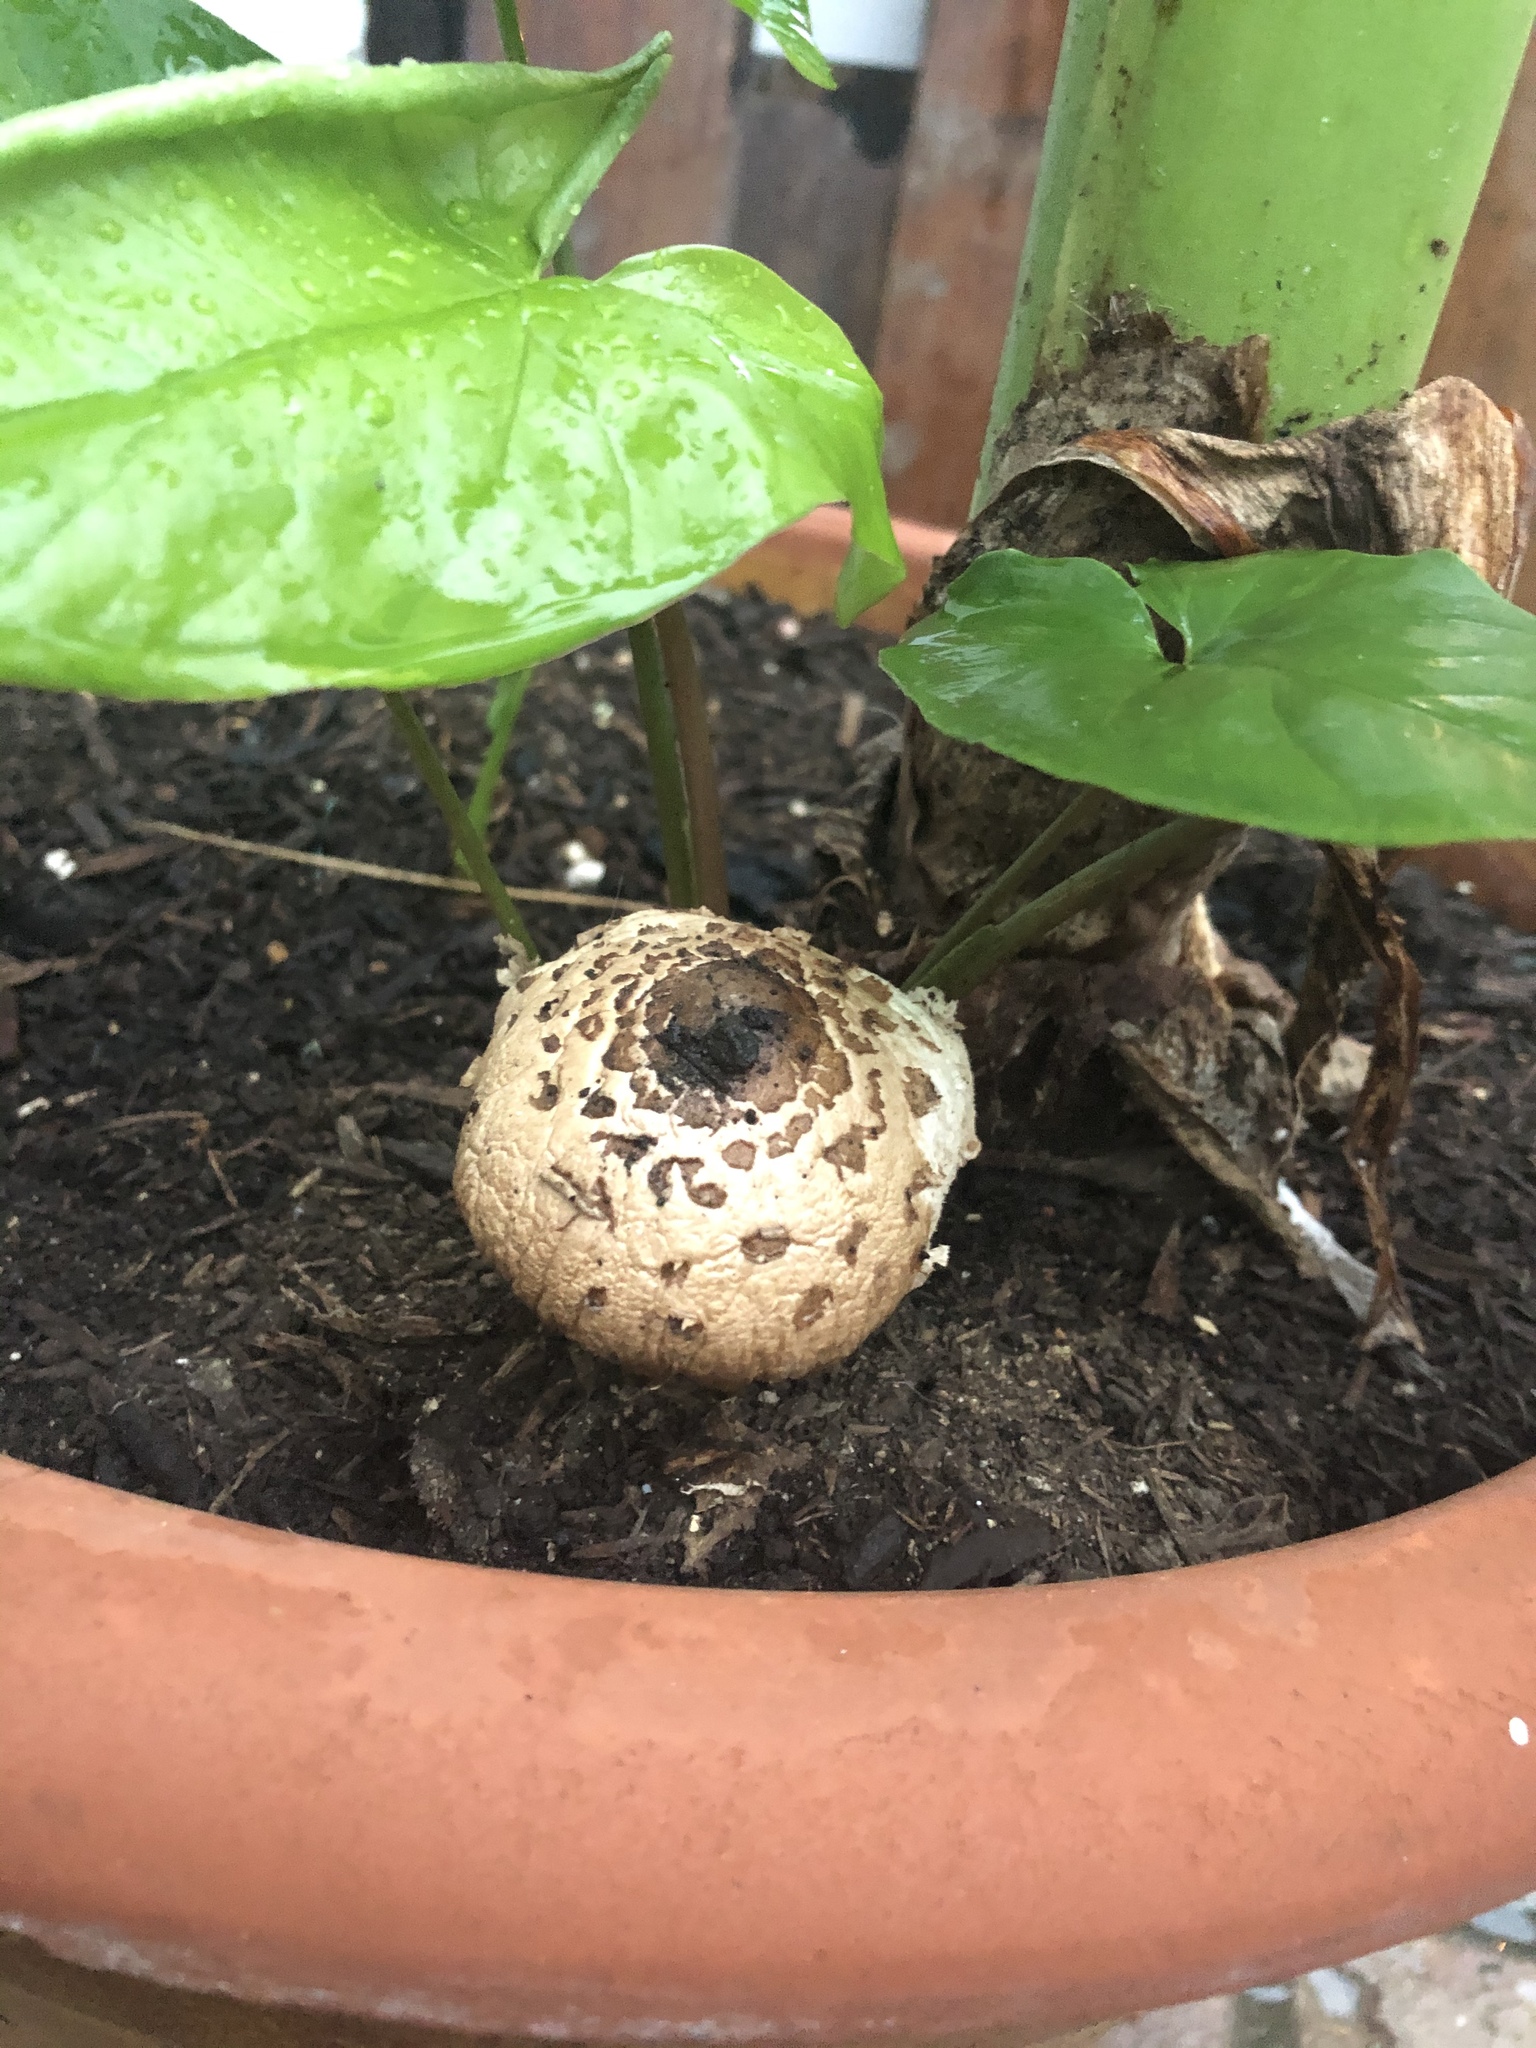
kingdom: Fungi
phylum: Basidiomycota
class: Agaricomycetes
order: Agaricales
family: Agaricaceae
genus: Chlorophyllum
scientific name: Chlorophyllum molybdites
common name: False parasol
